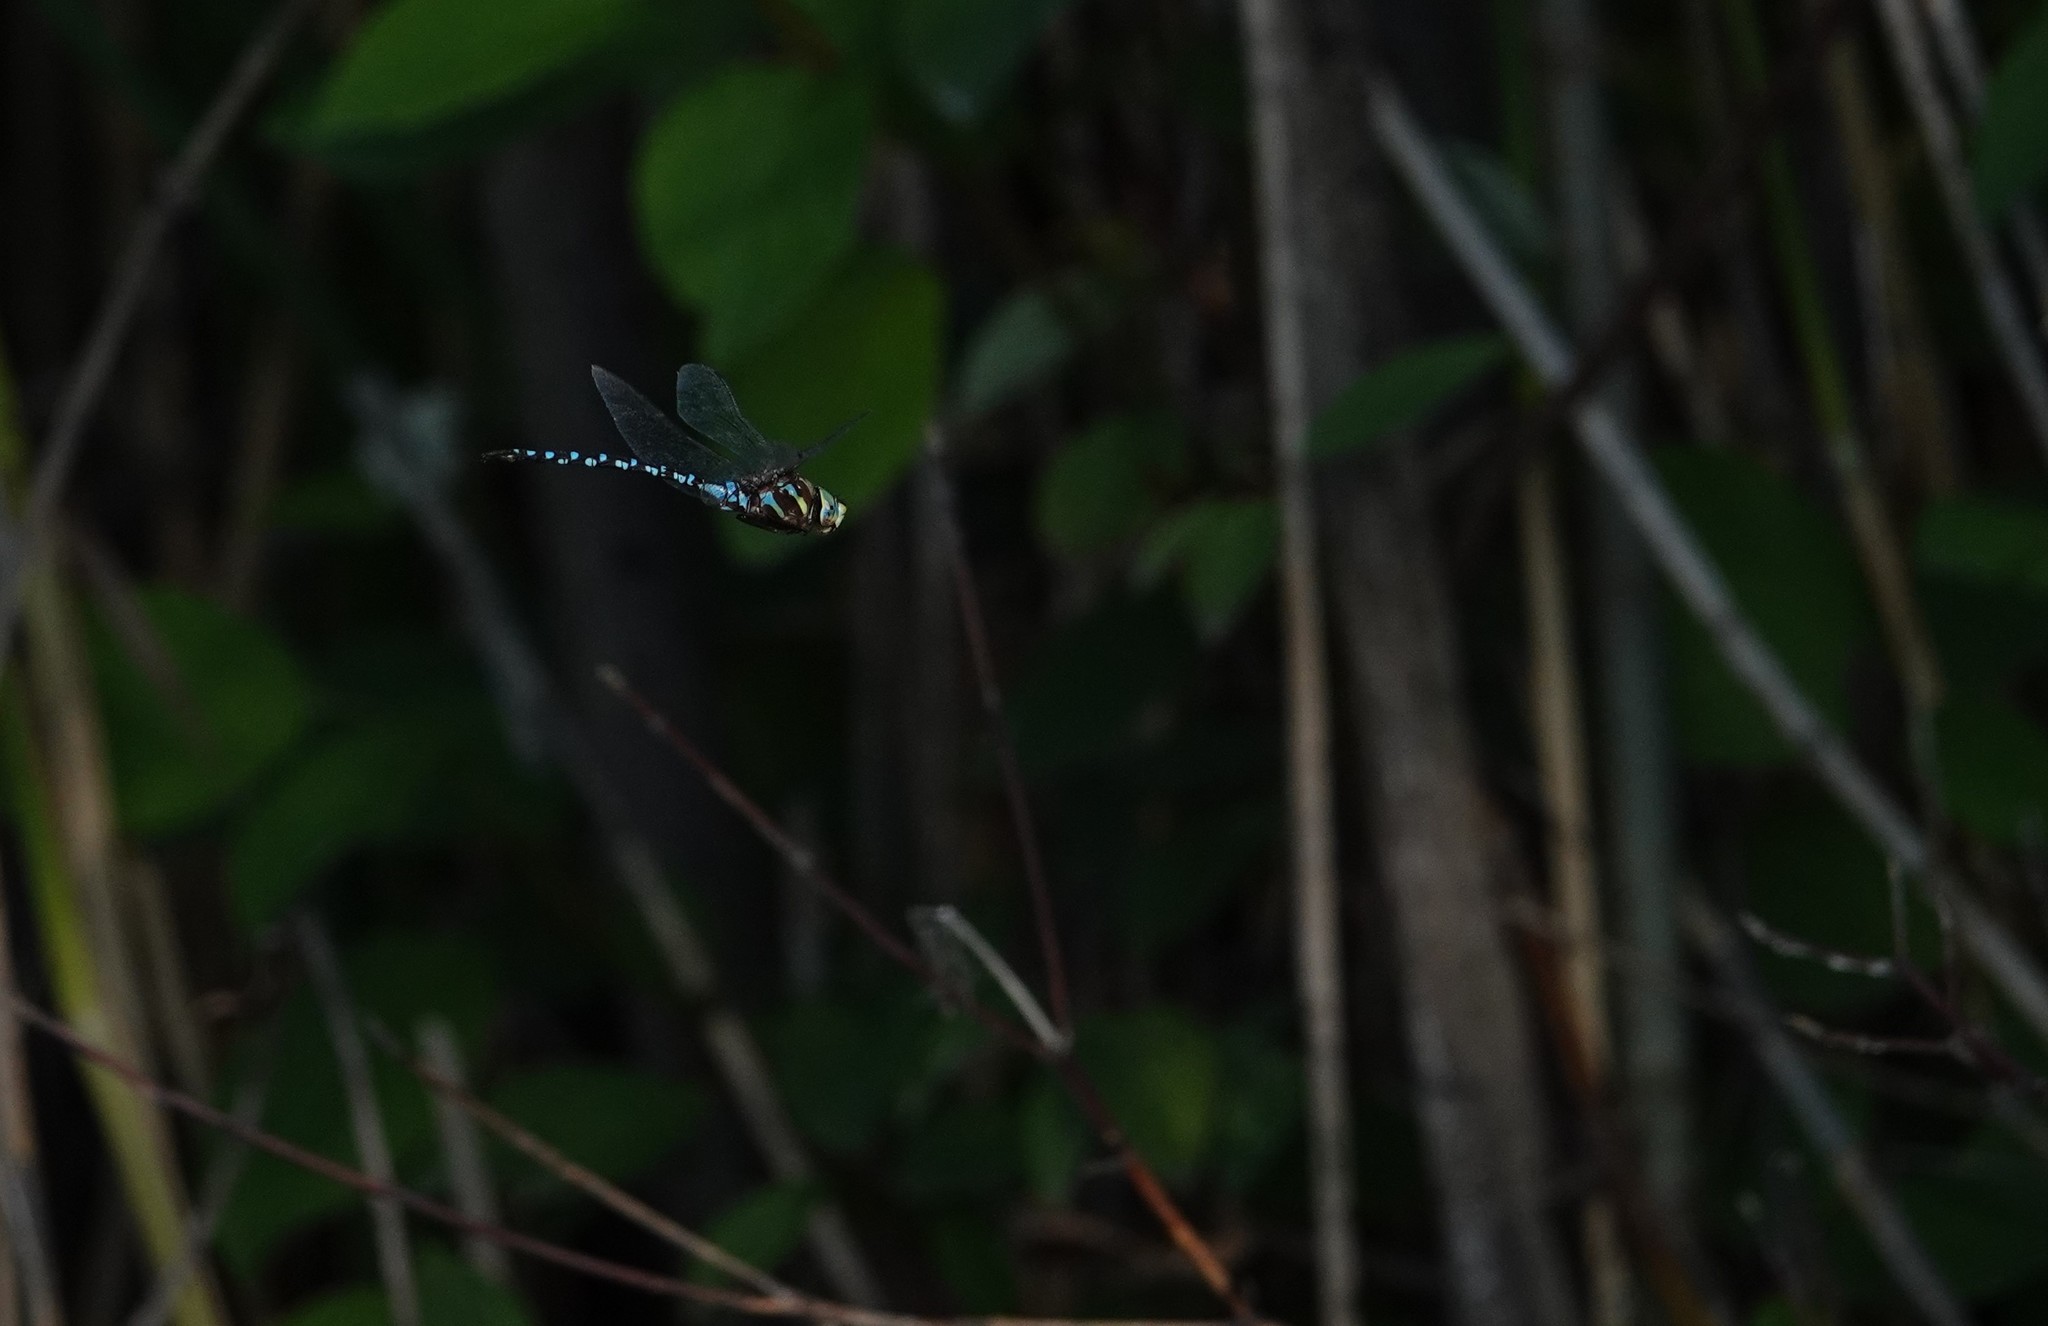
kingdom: Animalia
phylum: Arthropoda
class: Insecta
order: Odonata
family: Aeshnidae
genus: Aeshna
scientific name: Aeshna constricta
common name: Lance-tipped darner
